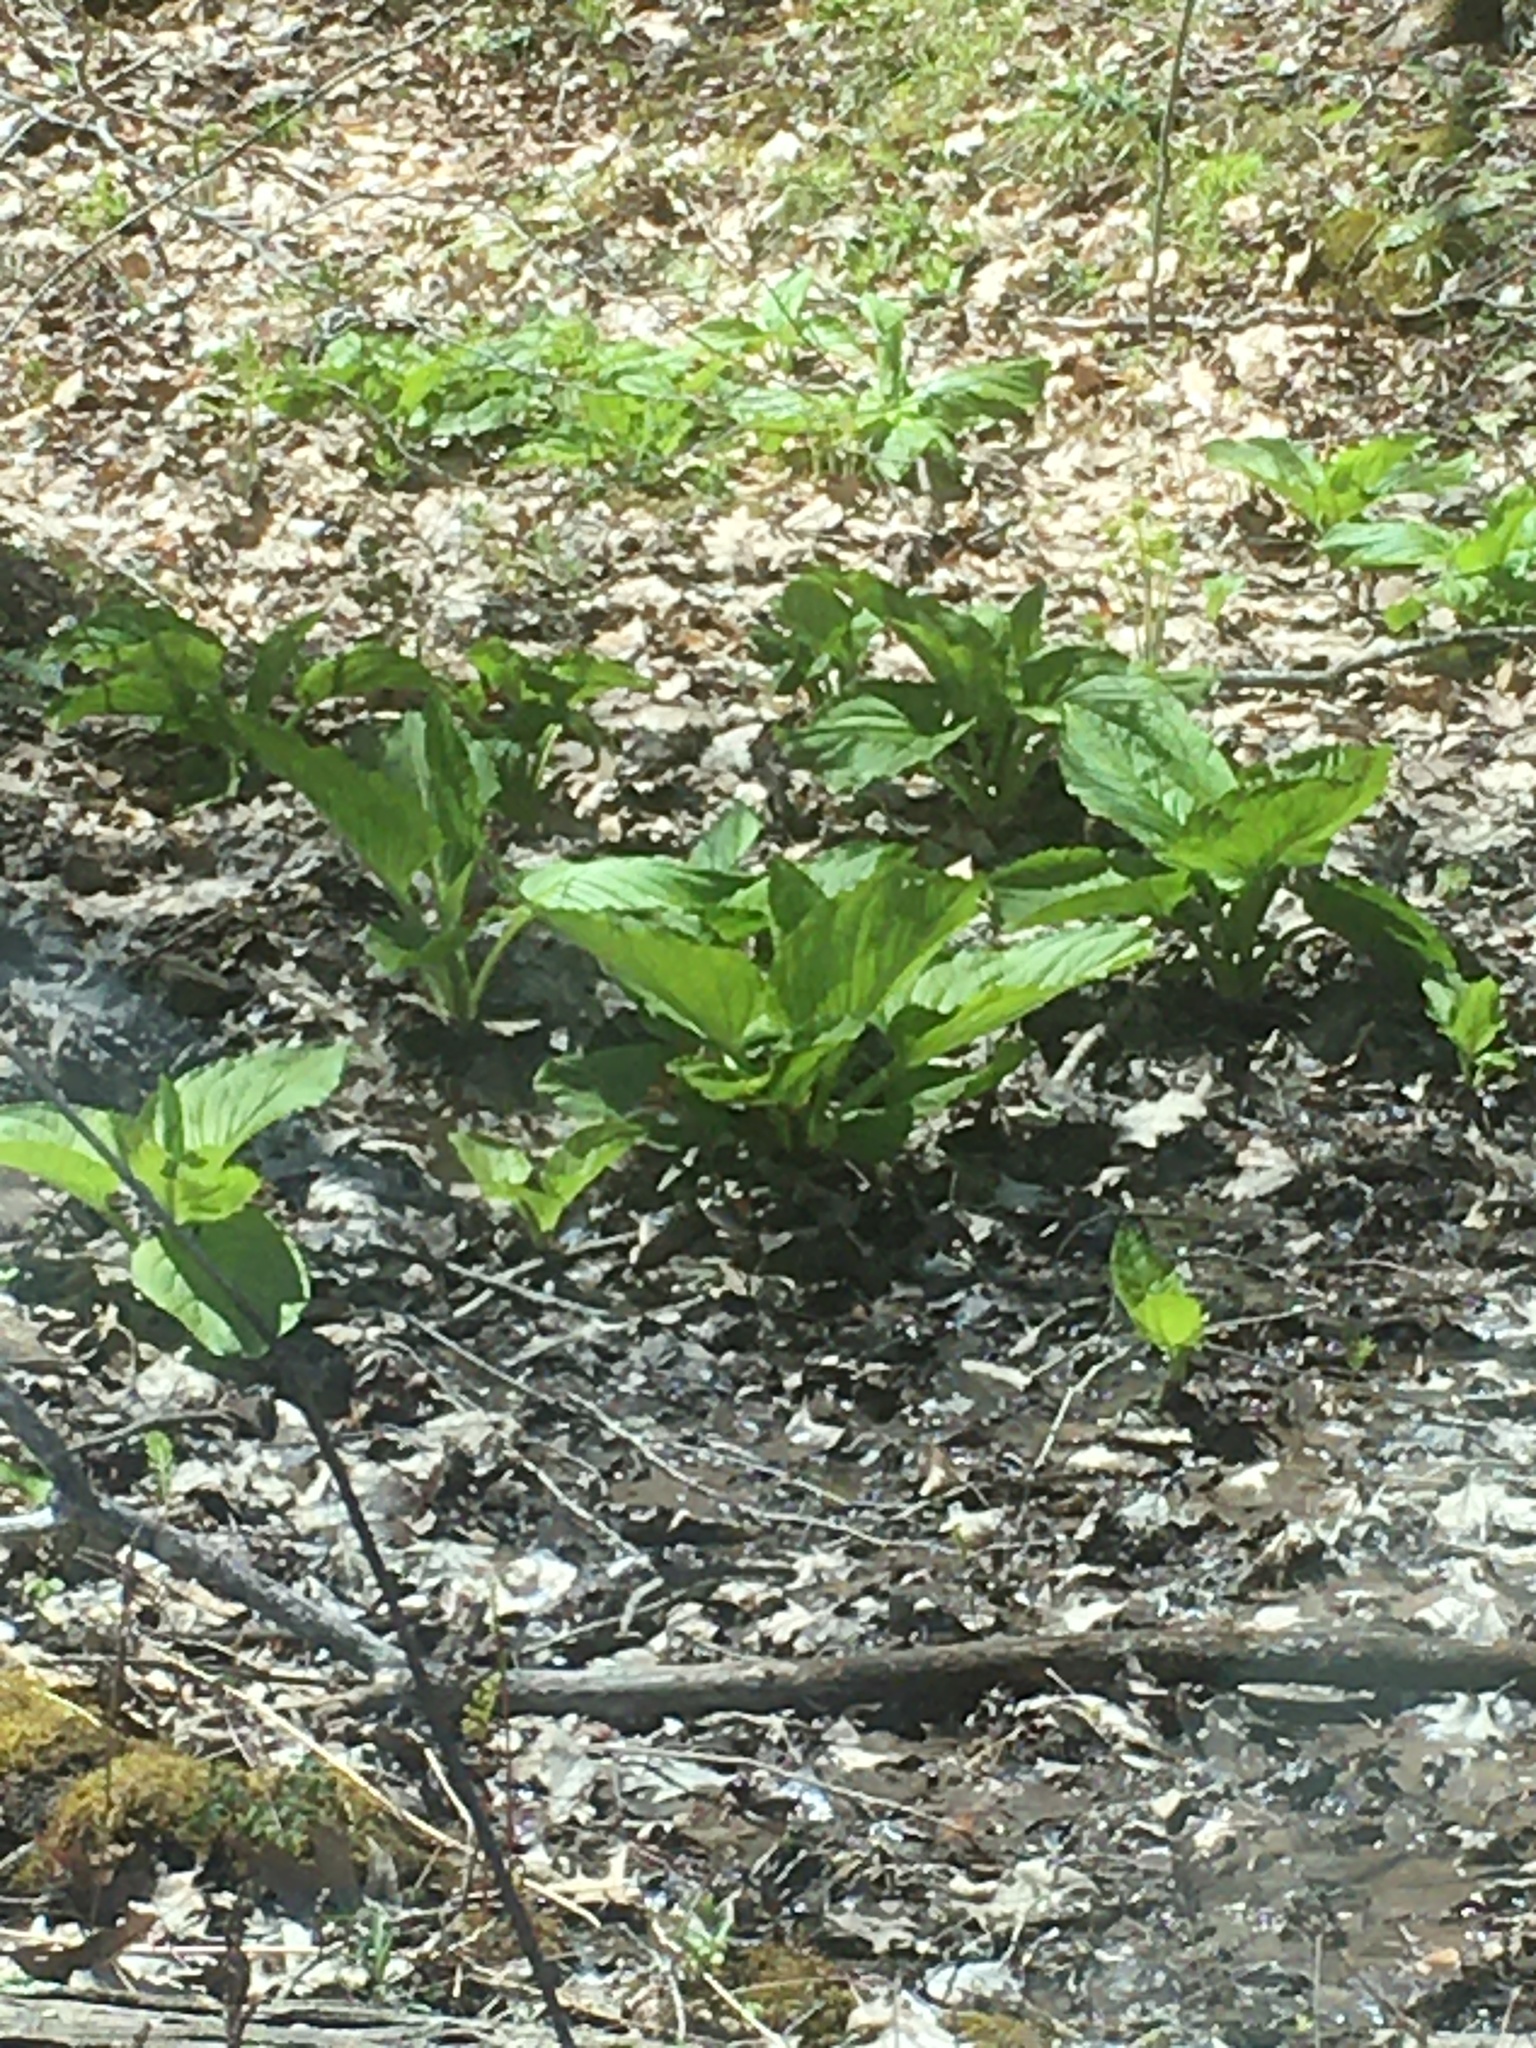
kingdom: Plantae
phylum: Tracheophyta
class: Liliopsida
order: Alismatales
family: Araceae
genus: Symplocarpus
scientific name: Symplocarpus foetidus
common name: Eastern skunk cabbage
